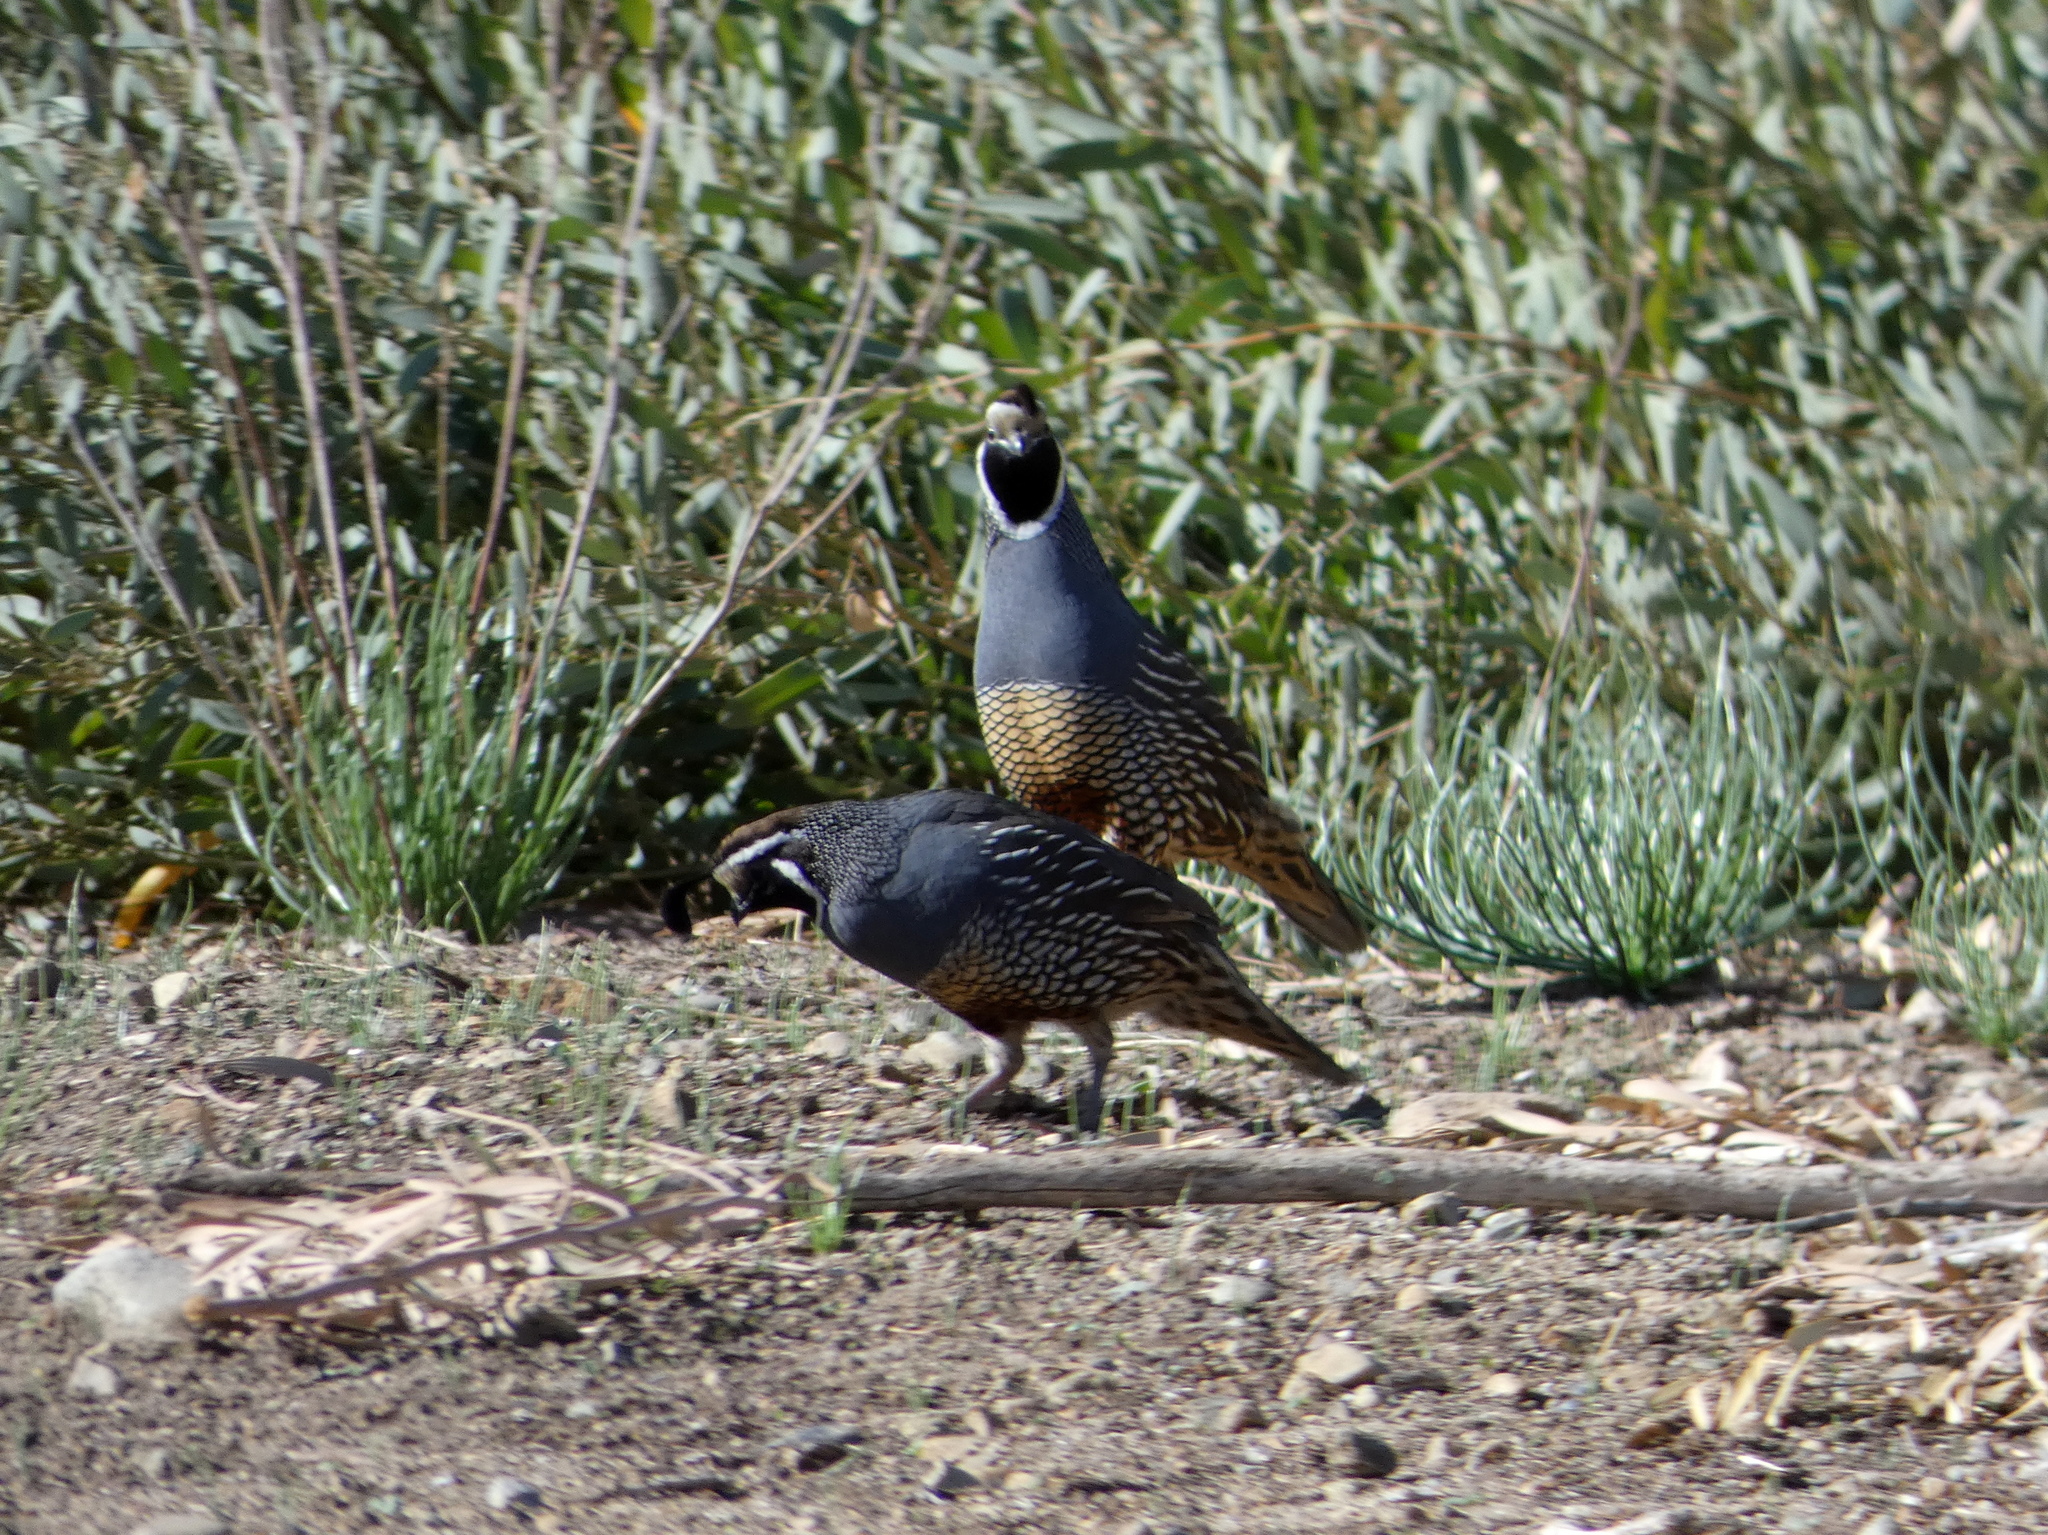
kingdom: Animalia
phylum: Chordata
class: Aves
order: Galliformes
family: Odontophoridae
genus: Callipepla
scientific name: Callipepla californica
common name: California quail
